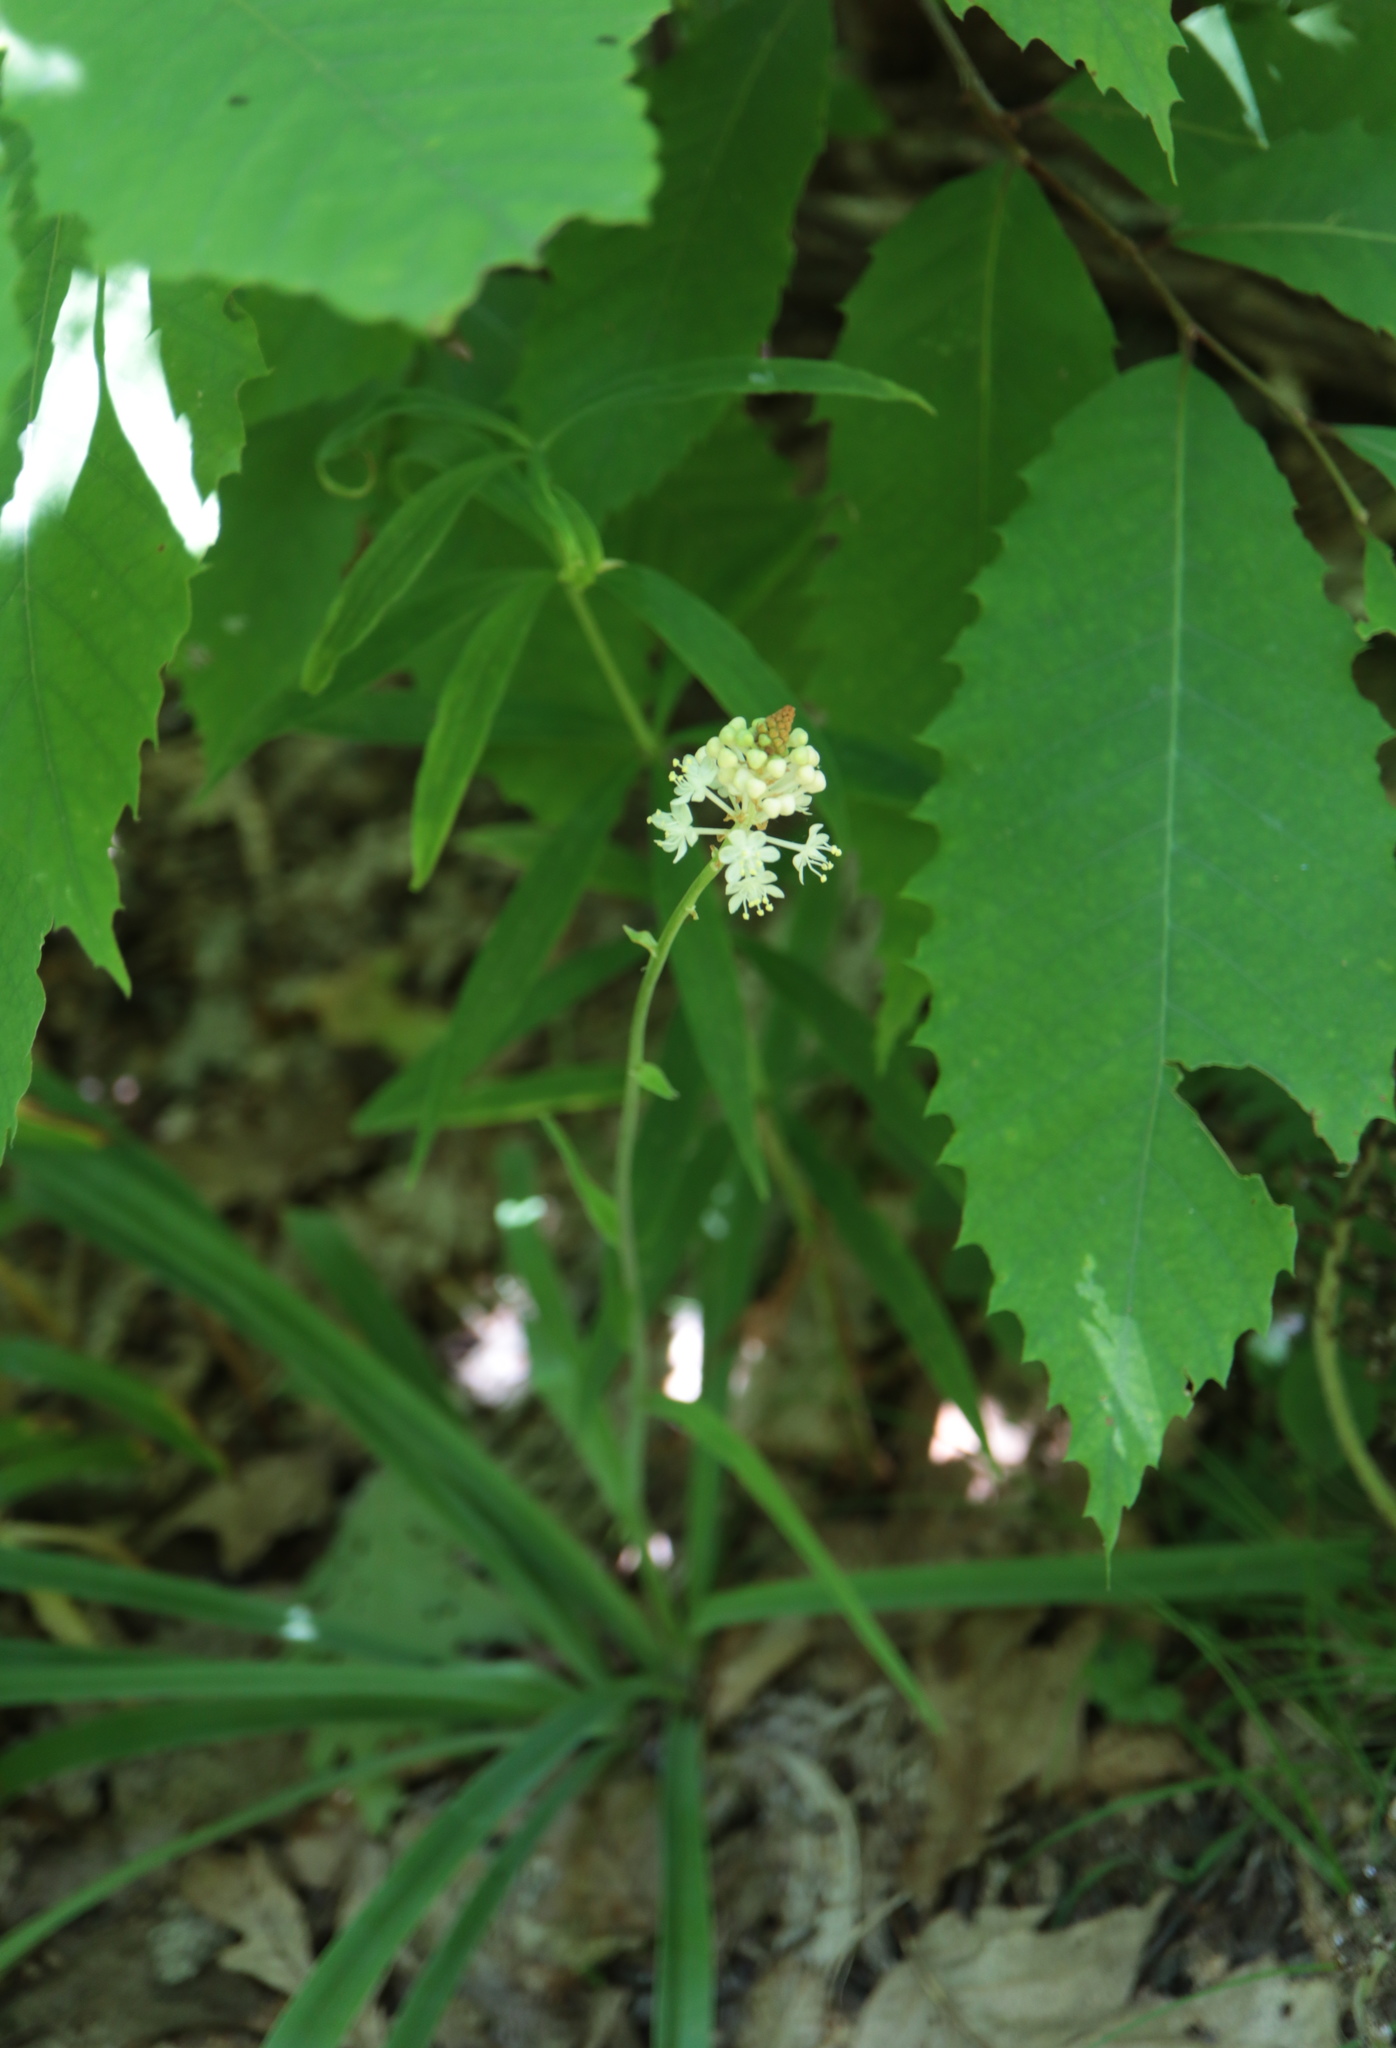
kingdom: Plantae
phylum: Tracheophyta
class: Liliopsida
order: Liliales
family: Melanthiaceae
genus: Amianthium
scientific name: Amianthium muscitoxicum
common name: Fly-poison
